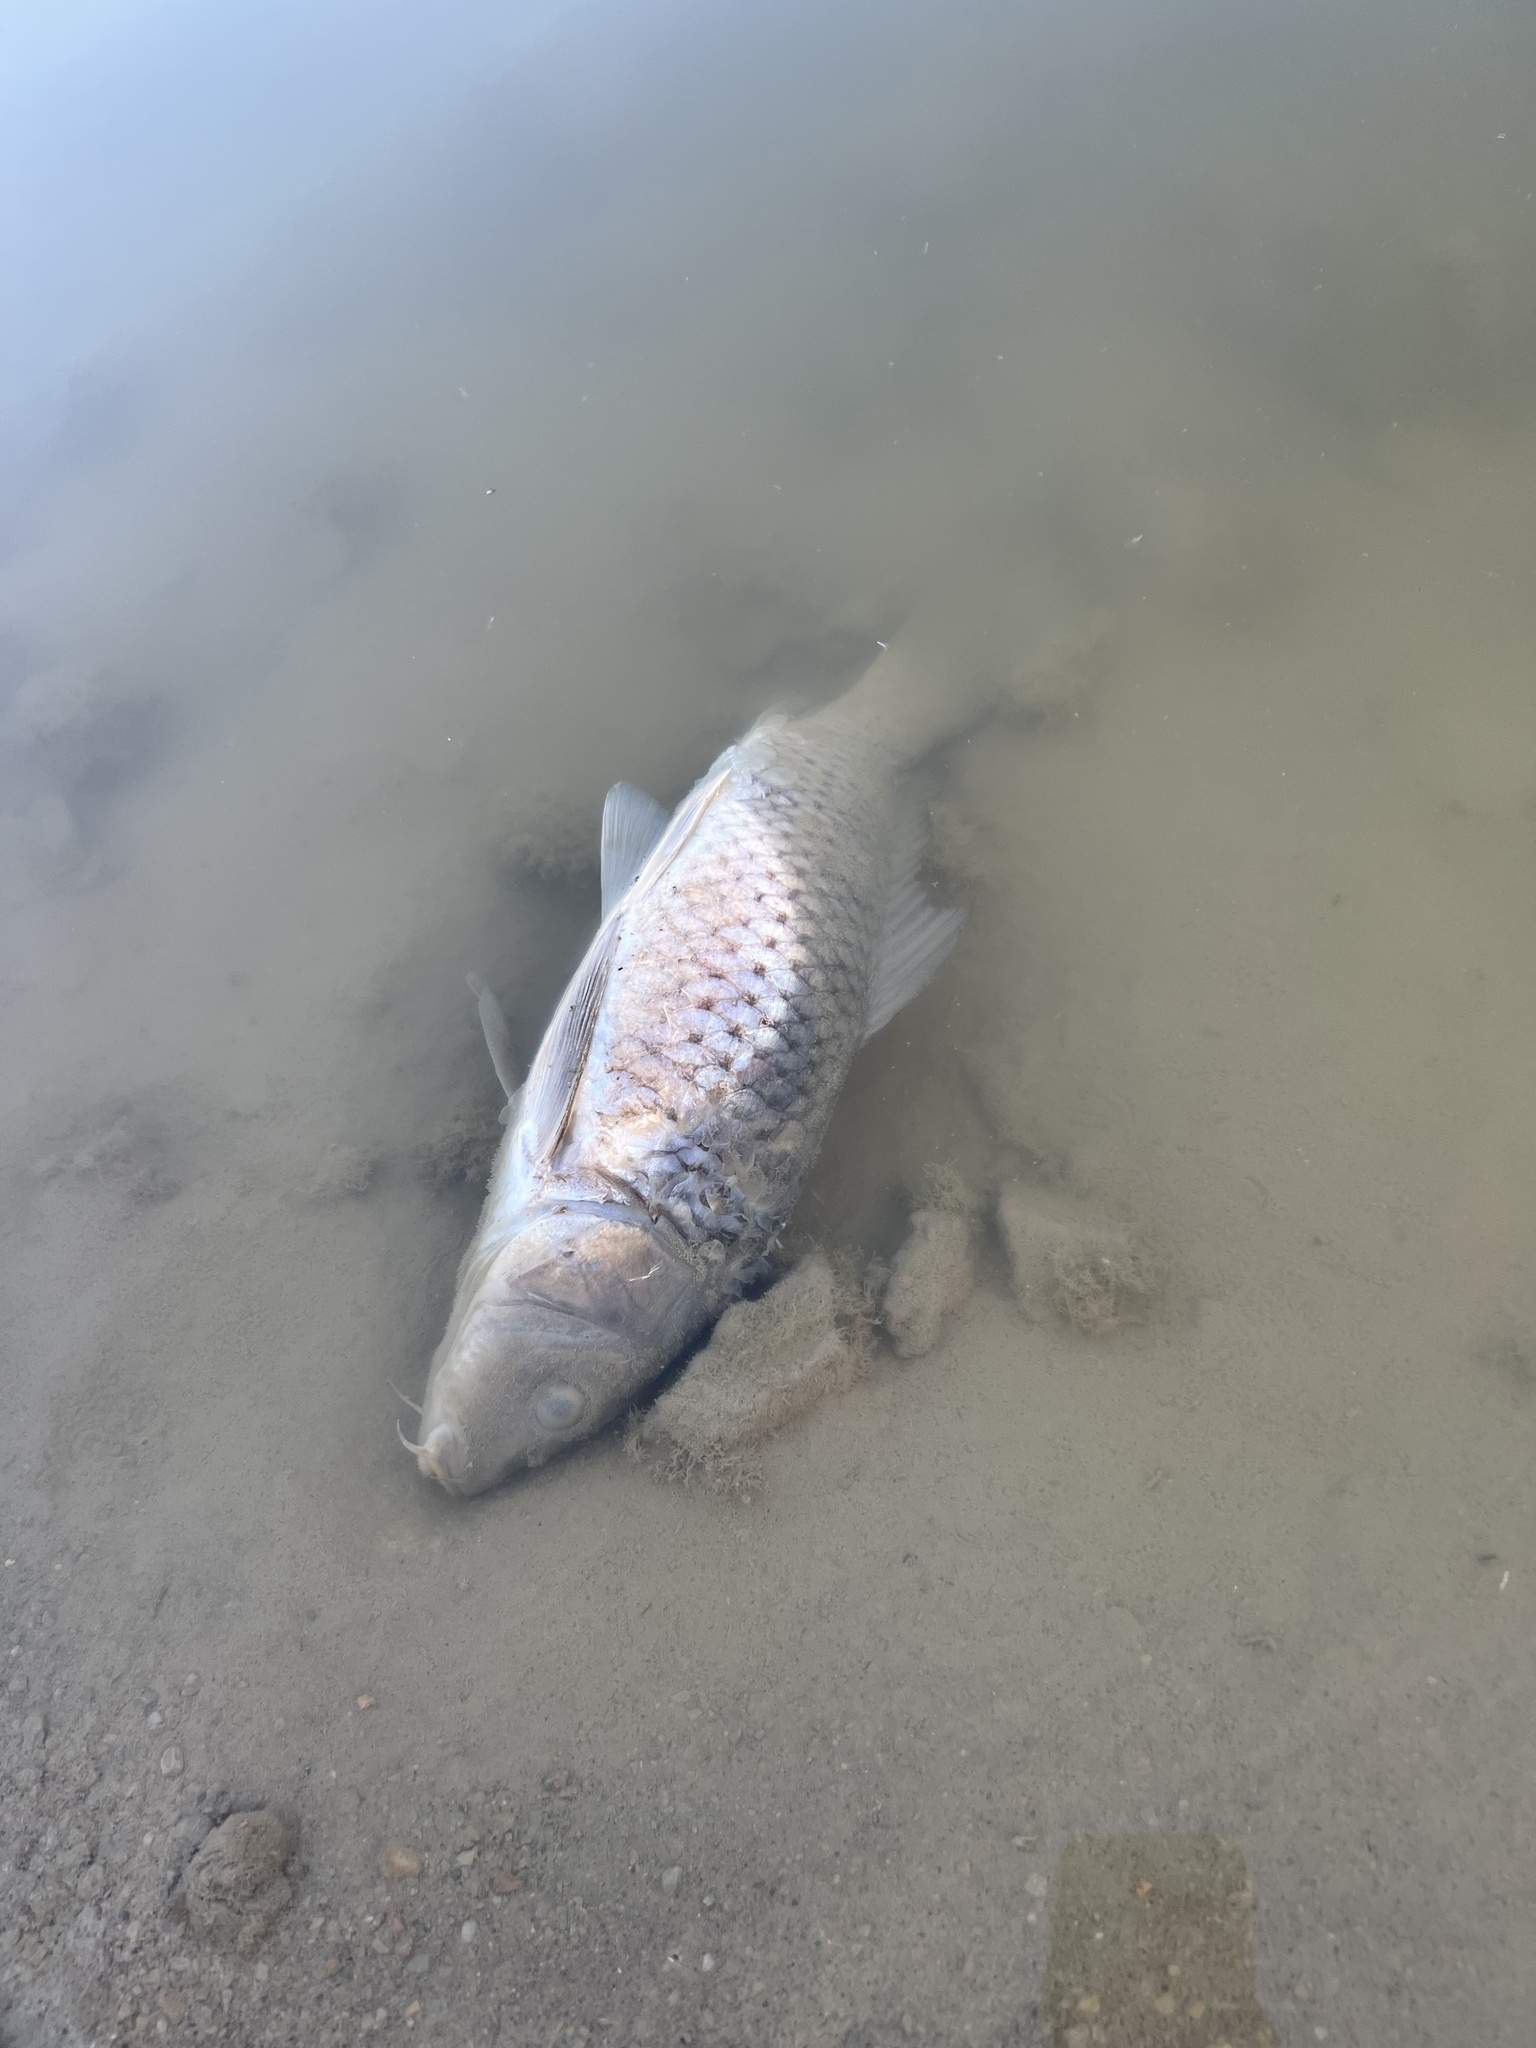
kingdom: Animalia
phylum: Chordata
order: Cypriniformes
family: Cyprinidae
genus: Cyprinus
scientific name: Cyprinus carpio
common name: Common carp
